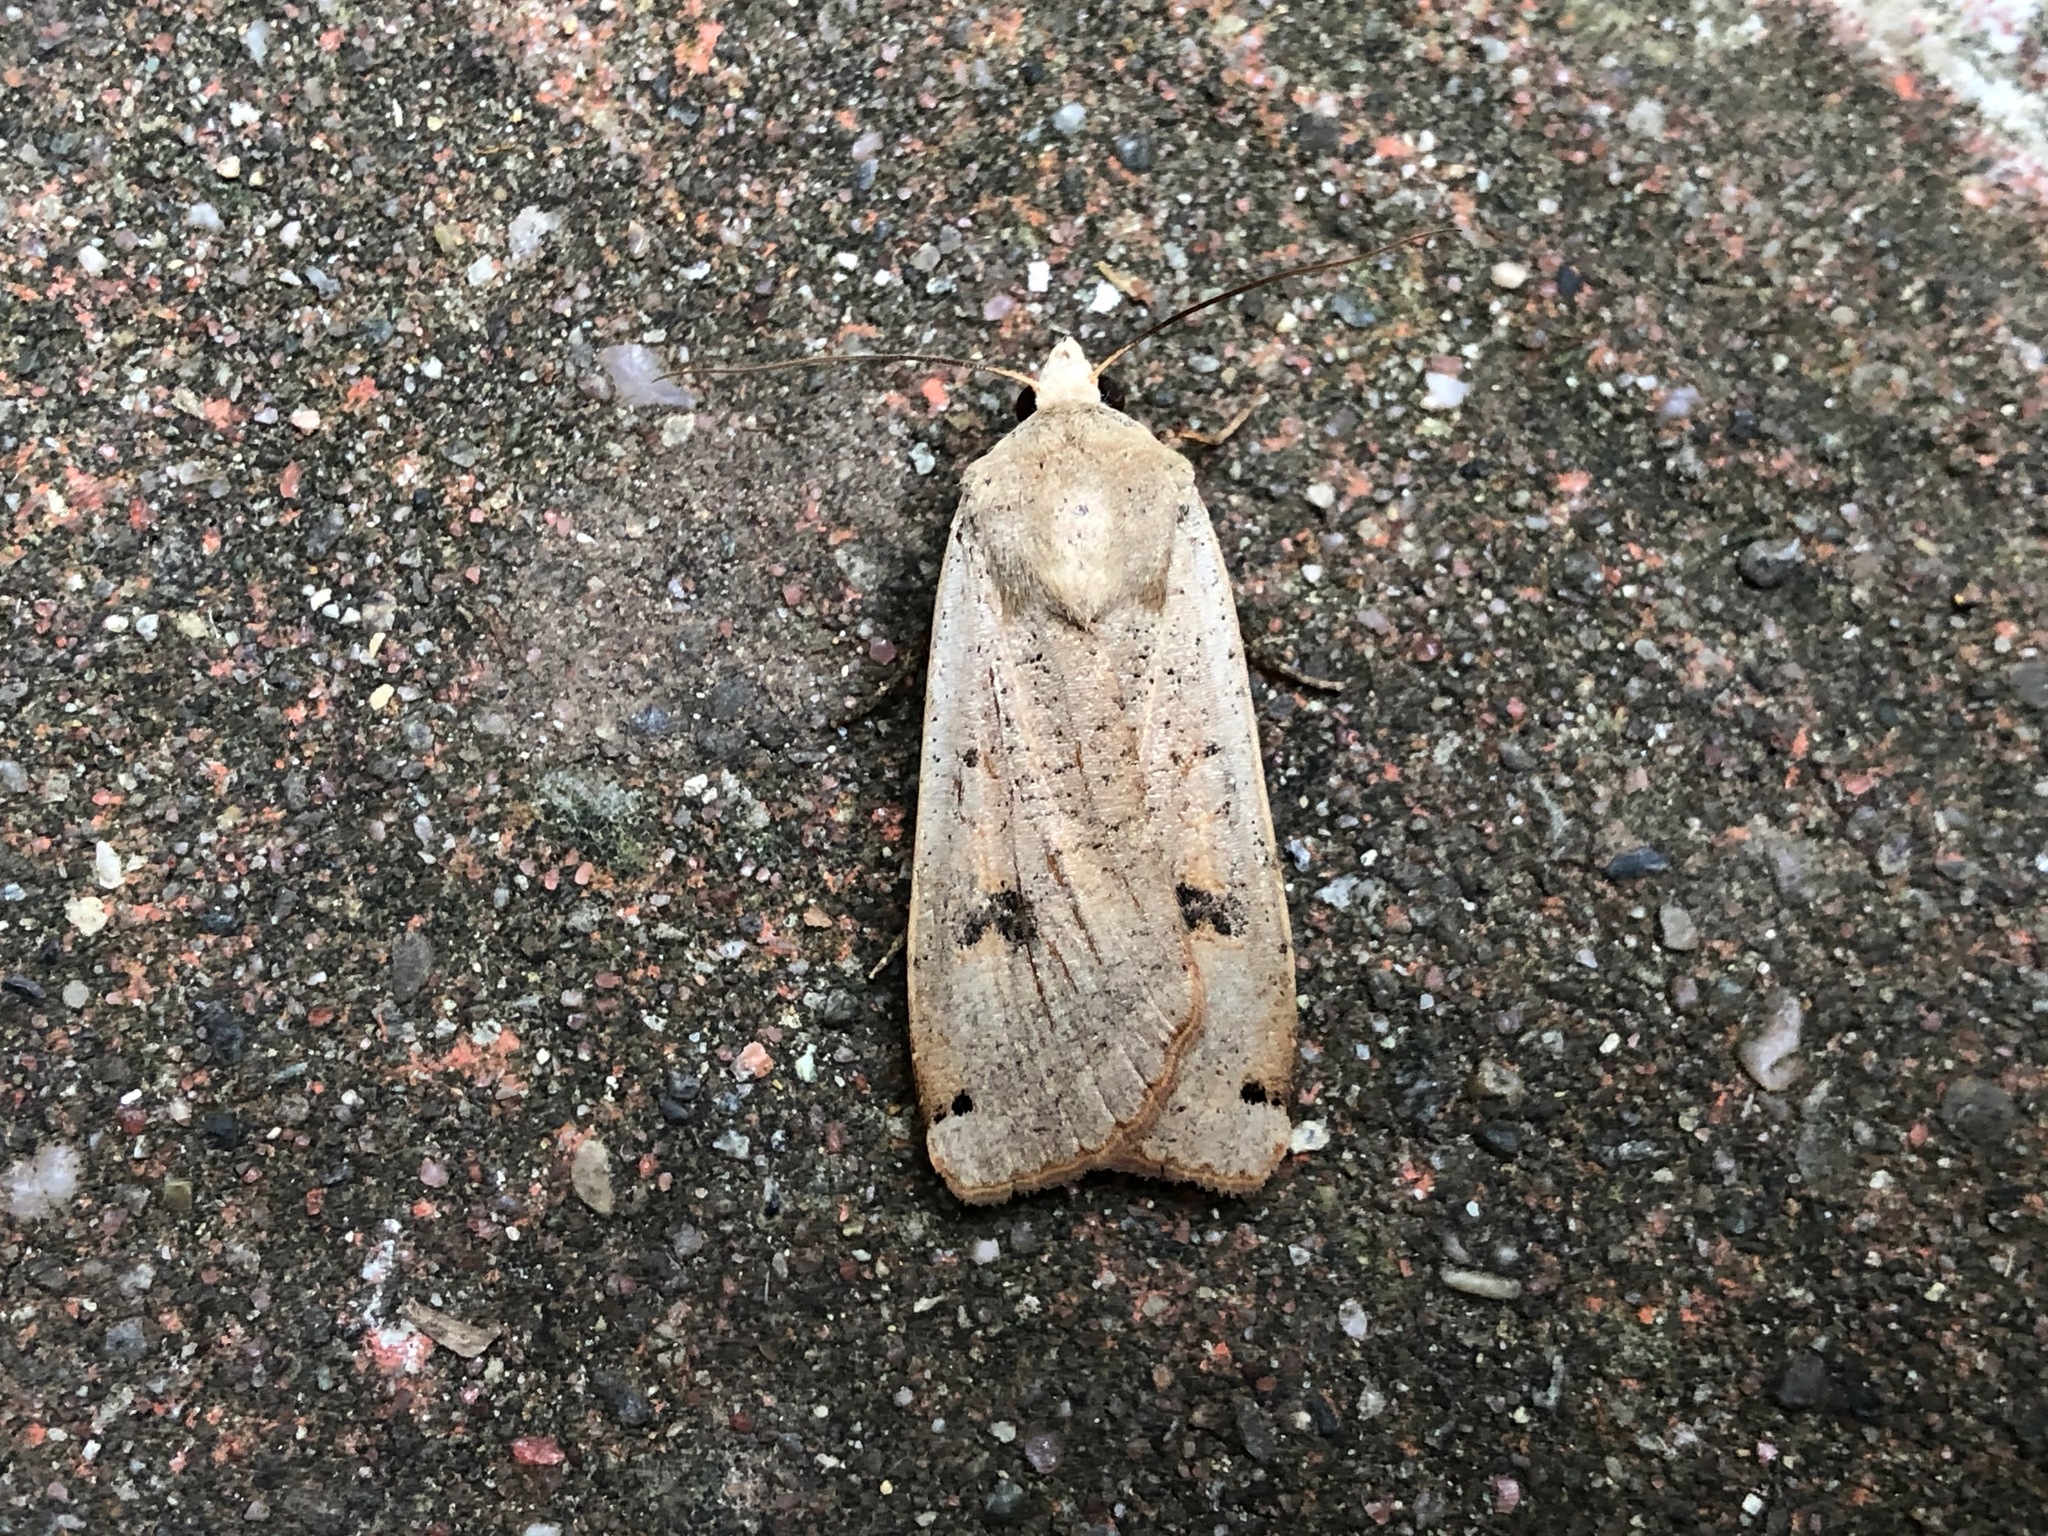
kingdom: Animalia
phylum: Arthropoda
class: Insecta
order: Lepidoptera
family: Noctuidae
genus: Noctua
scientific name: Noctua pronuba
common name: Large yellow underwing
